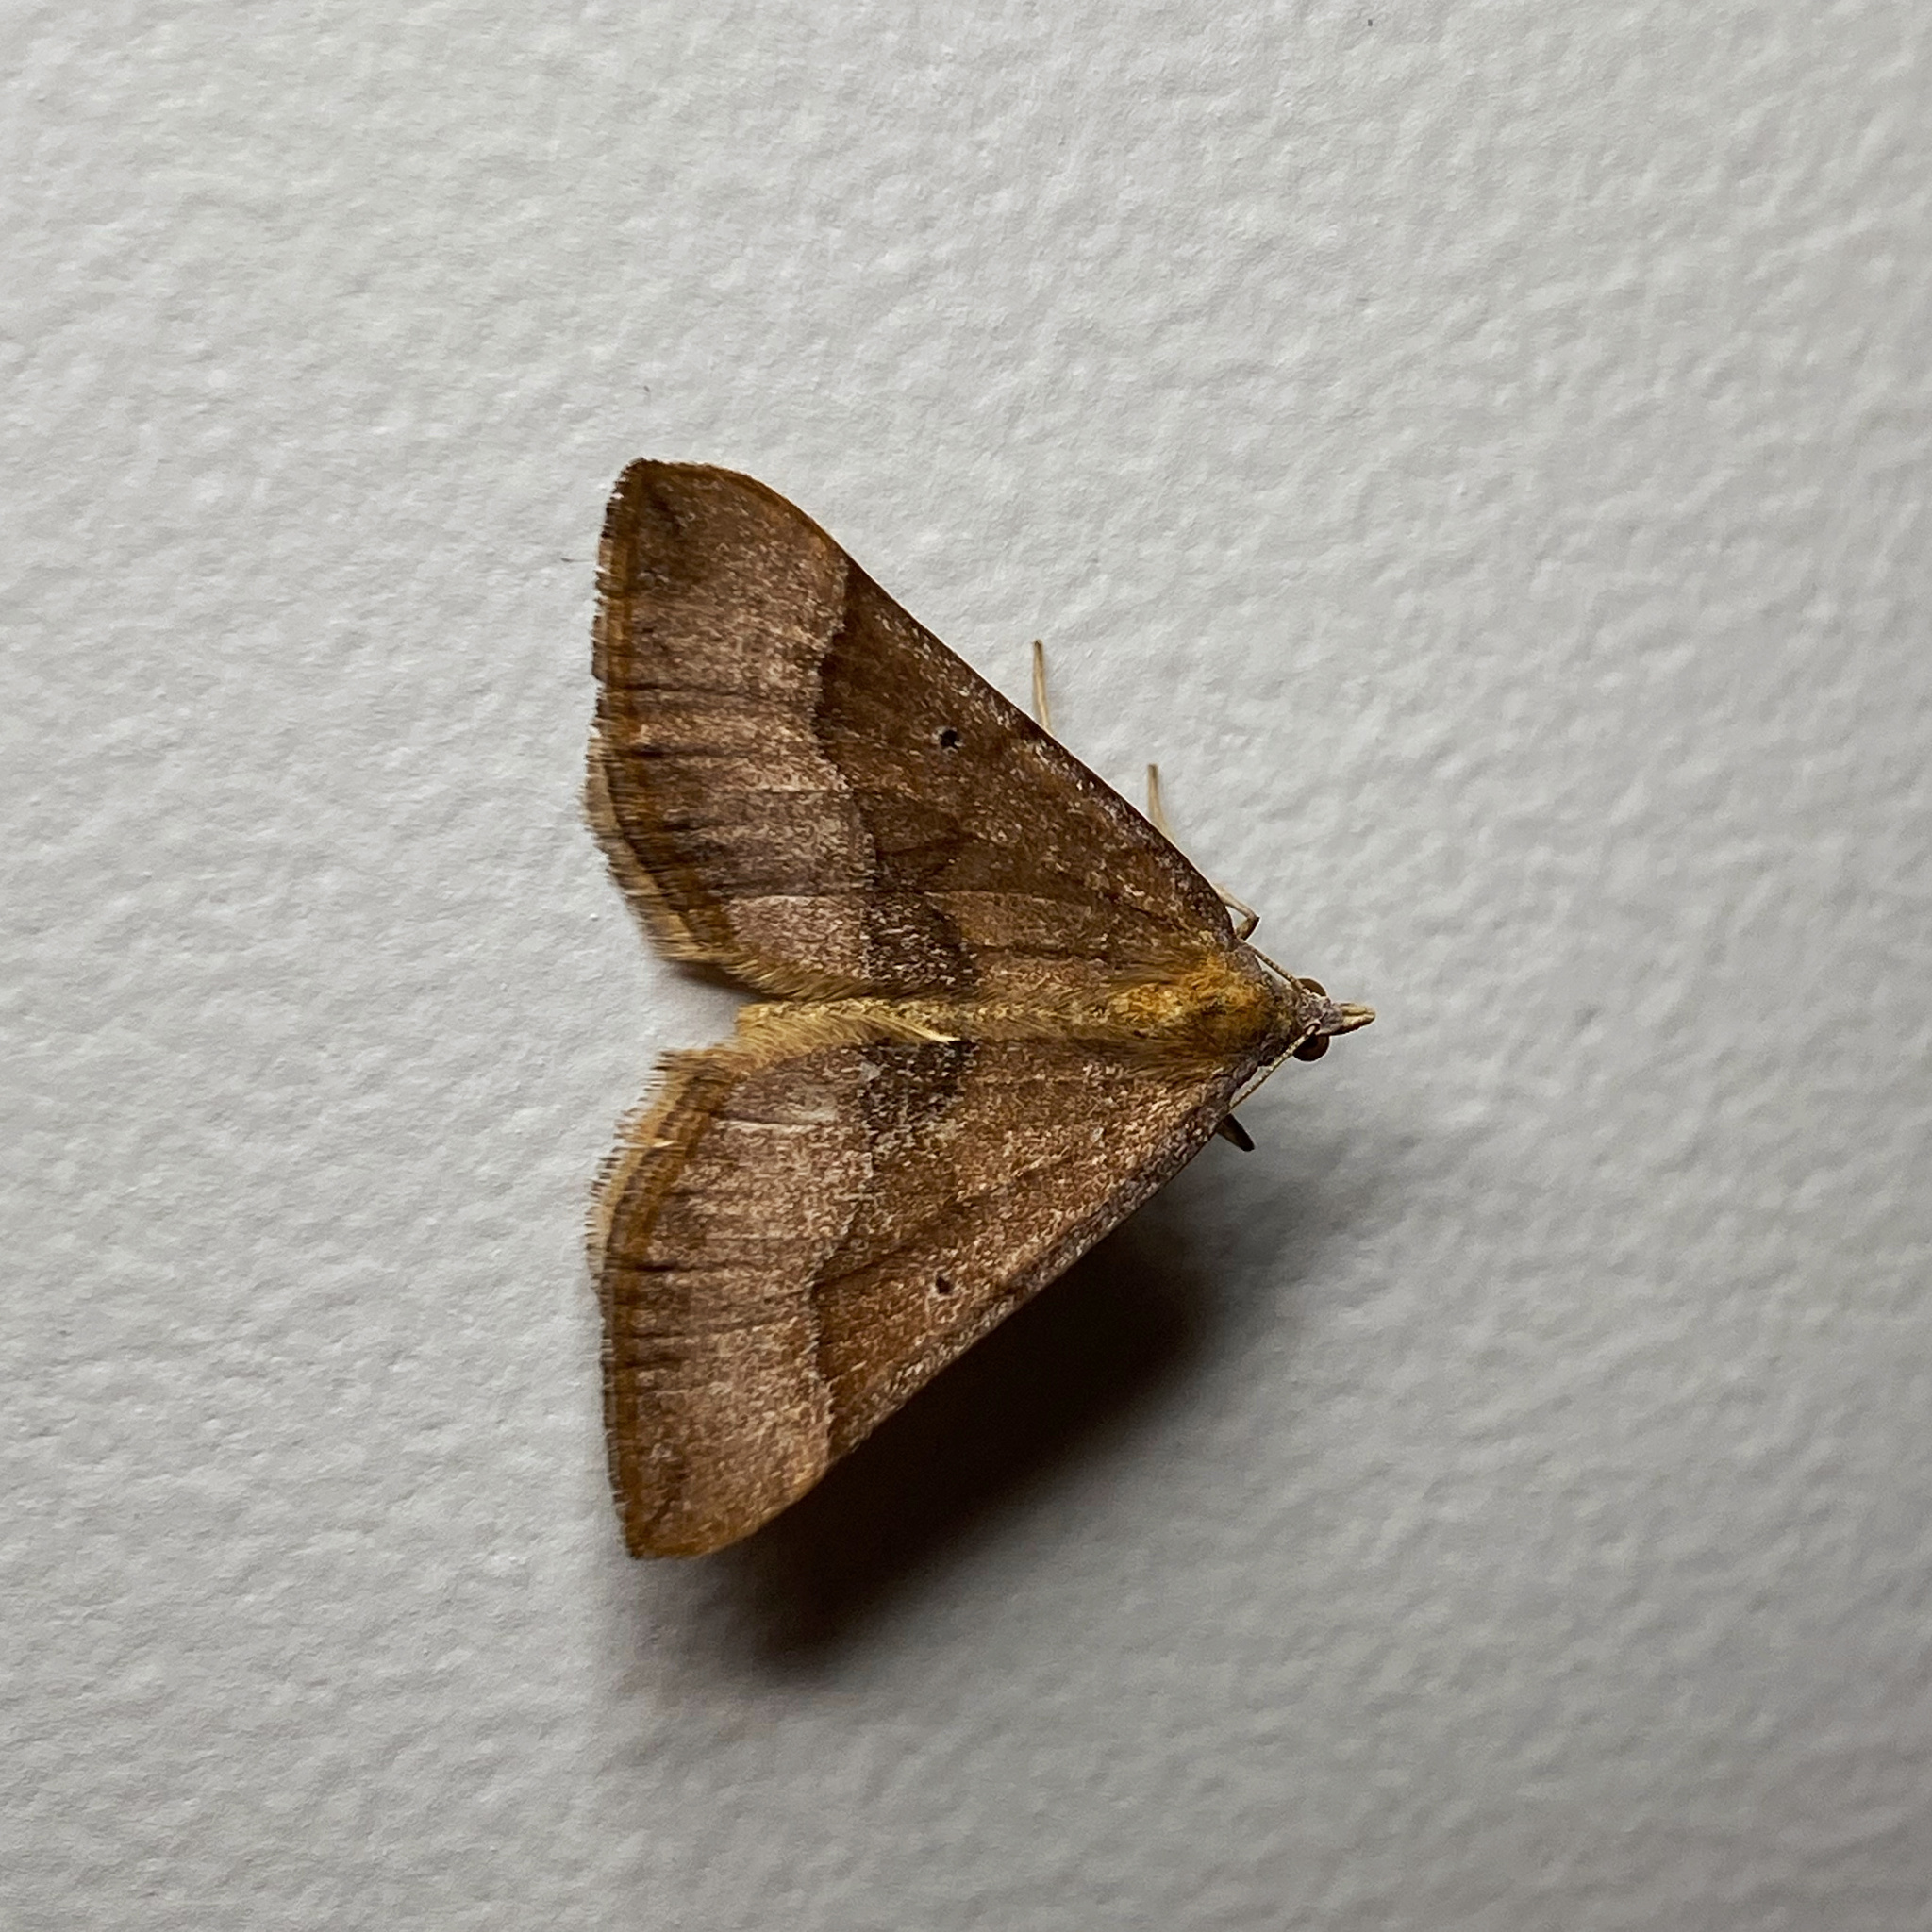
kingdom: Animalia
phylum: Arthropoda
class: Insecta
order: Lepidoptera
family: Geometridae
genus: Anachloris
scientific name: Anachloris subochraria
